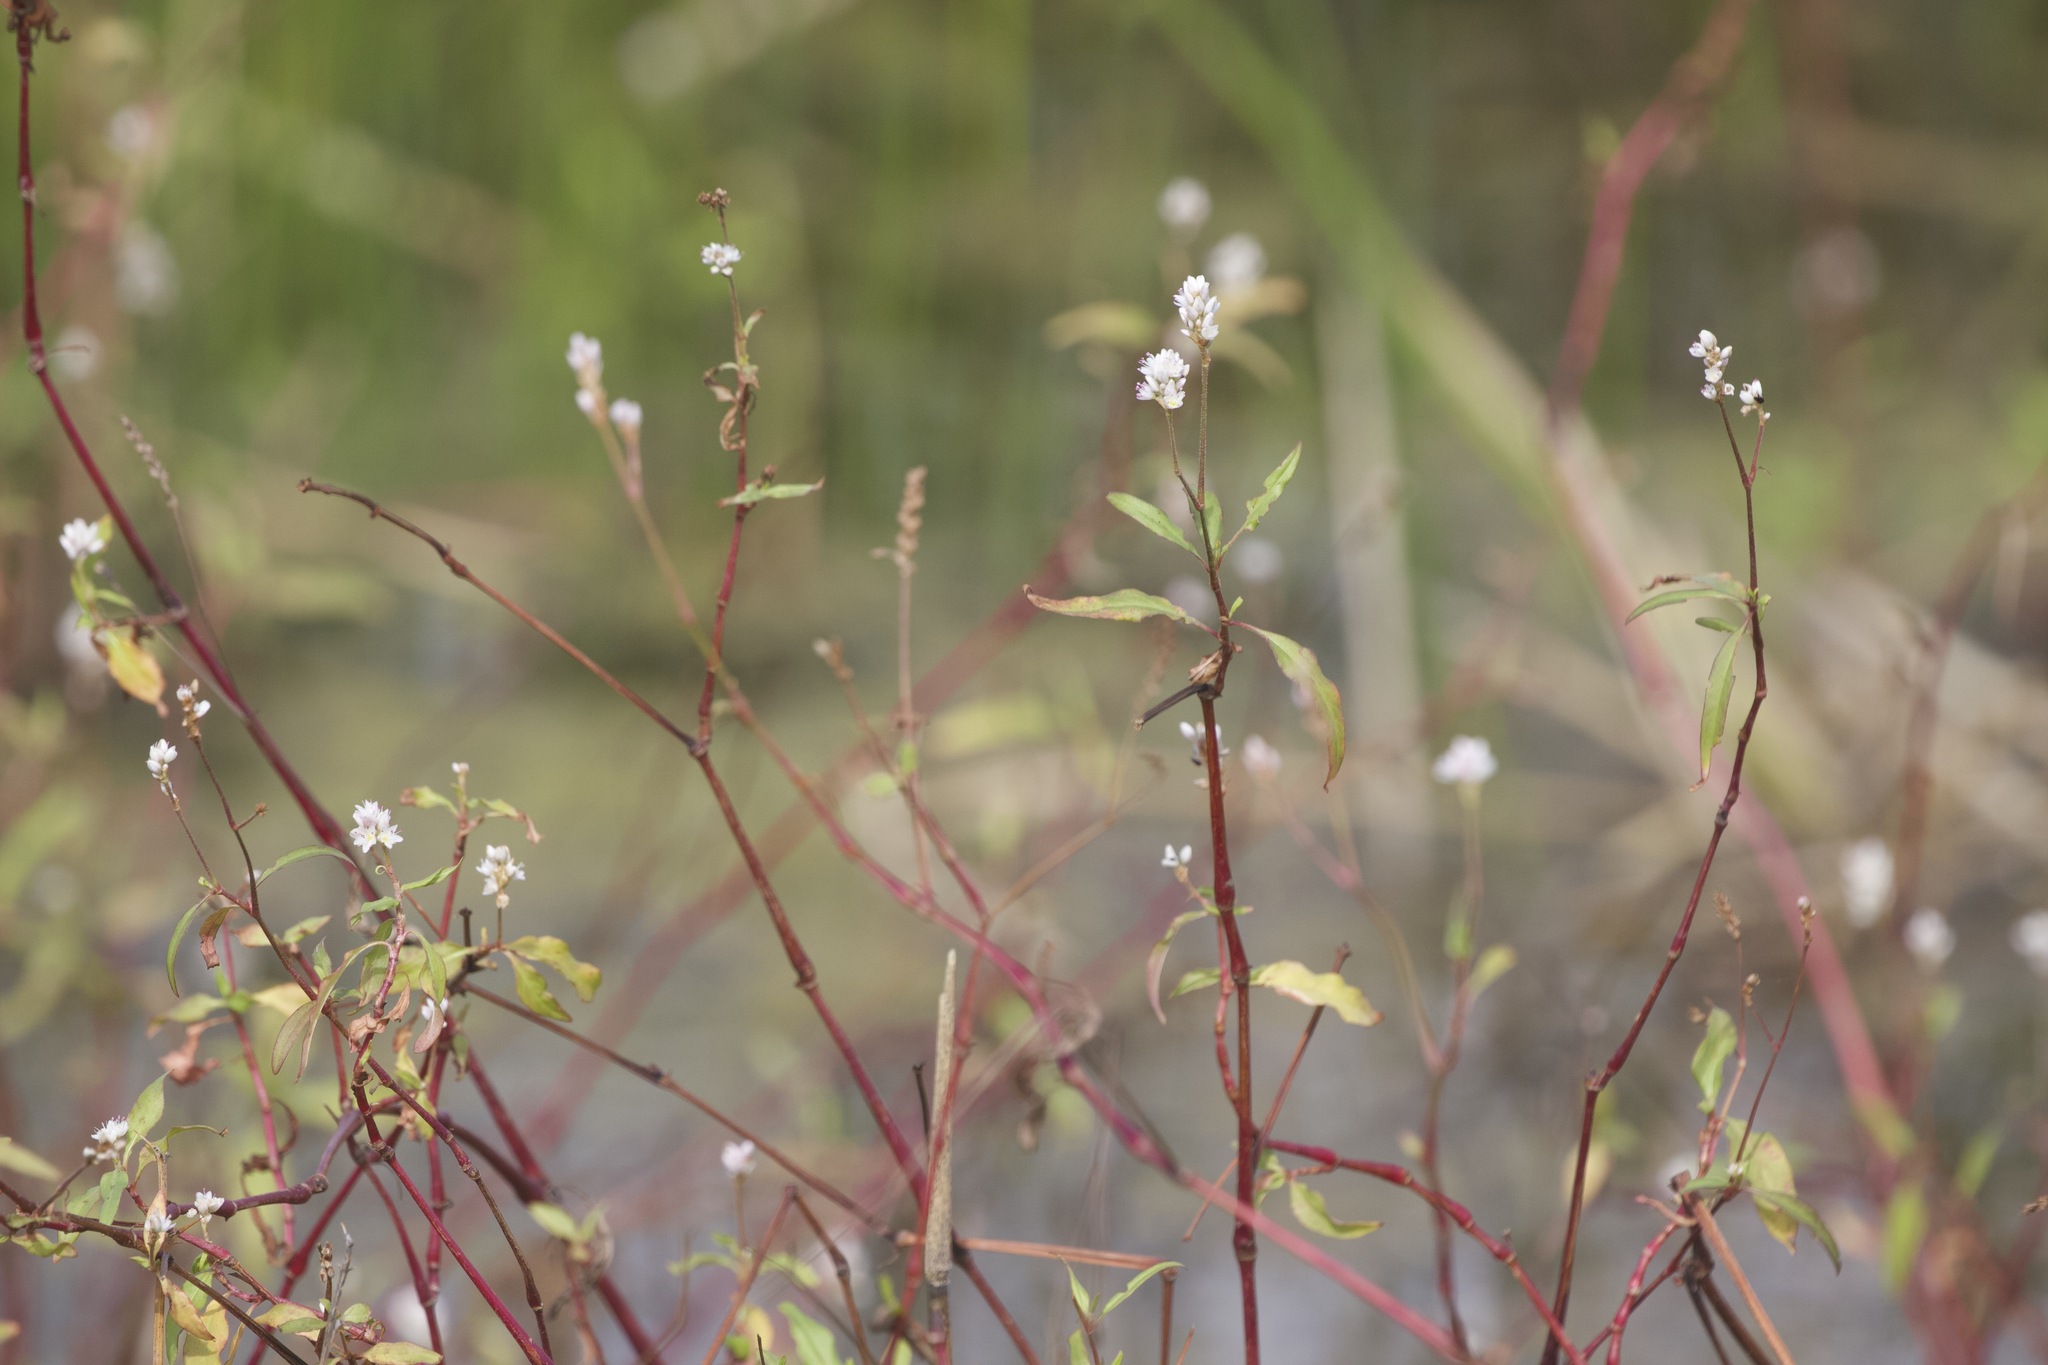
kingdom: Plantae
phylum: Tracheophyta
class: Magnoliopsida
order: Caryophyllales
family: Polygonaceae
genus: Persicaria
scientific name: Persicaria bicornis
